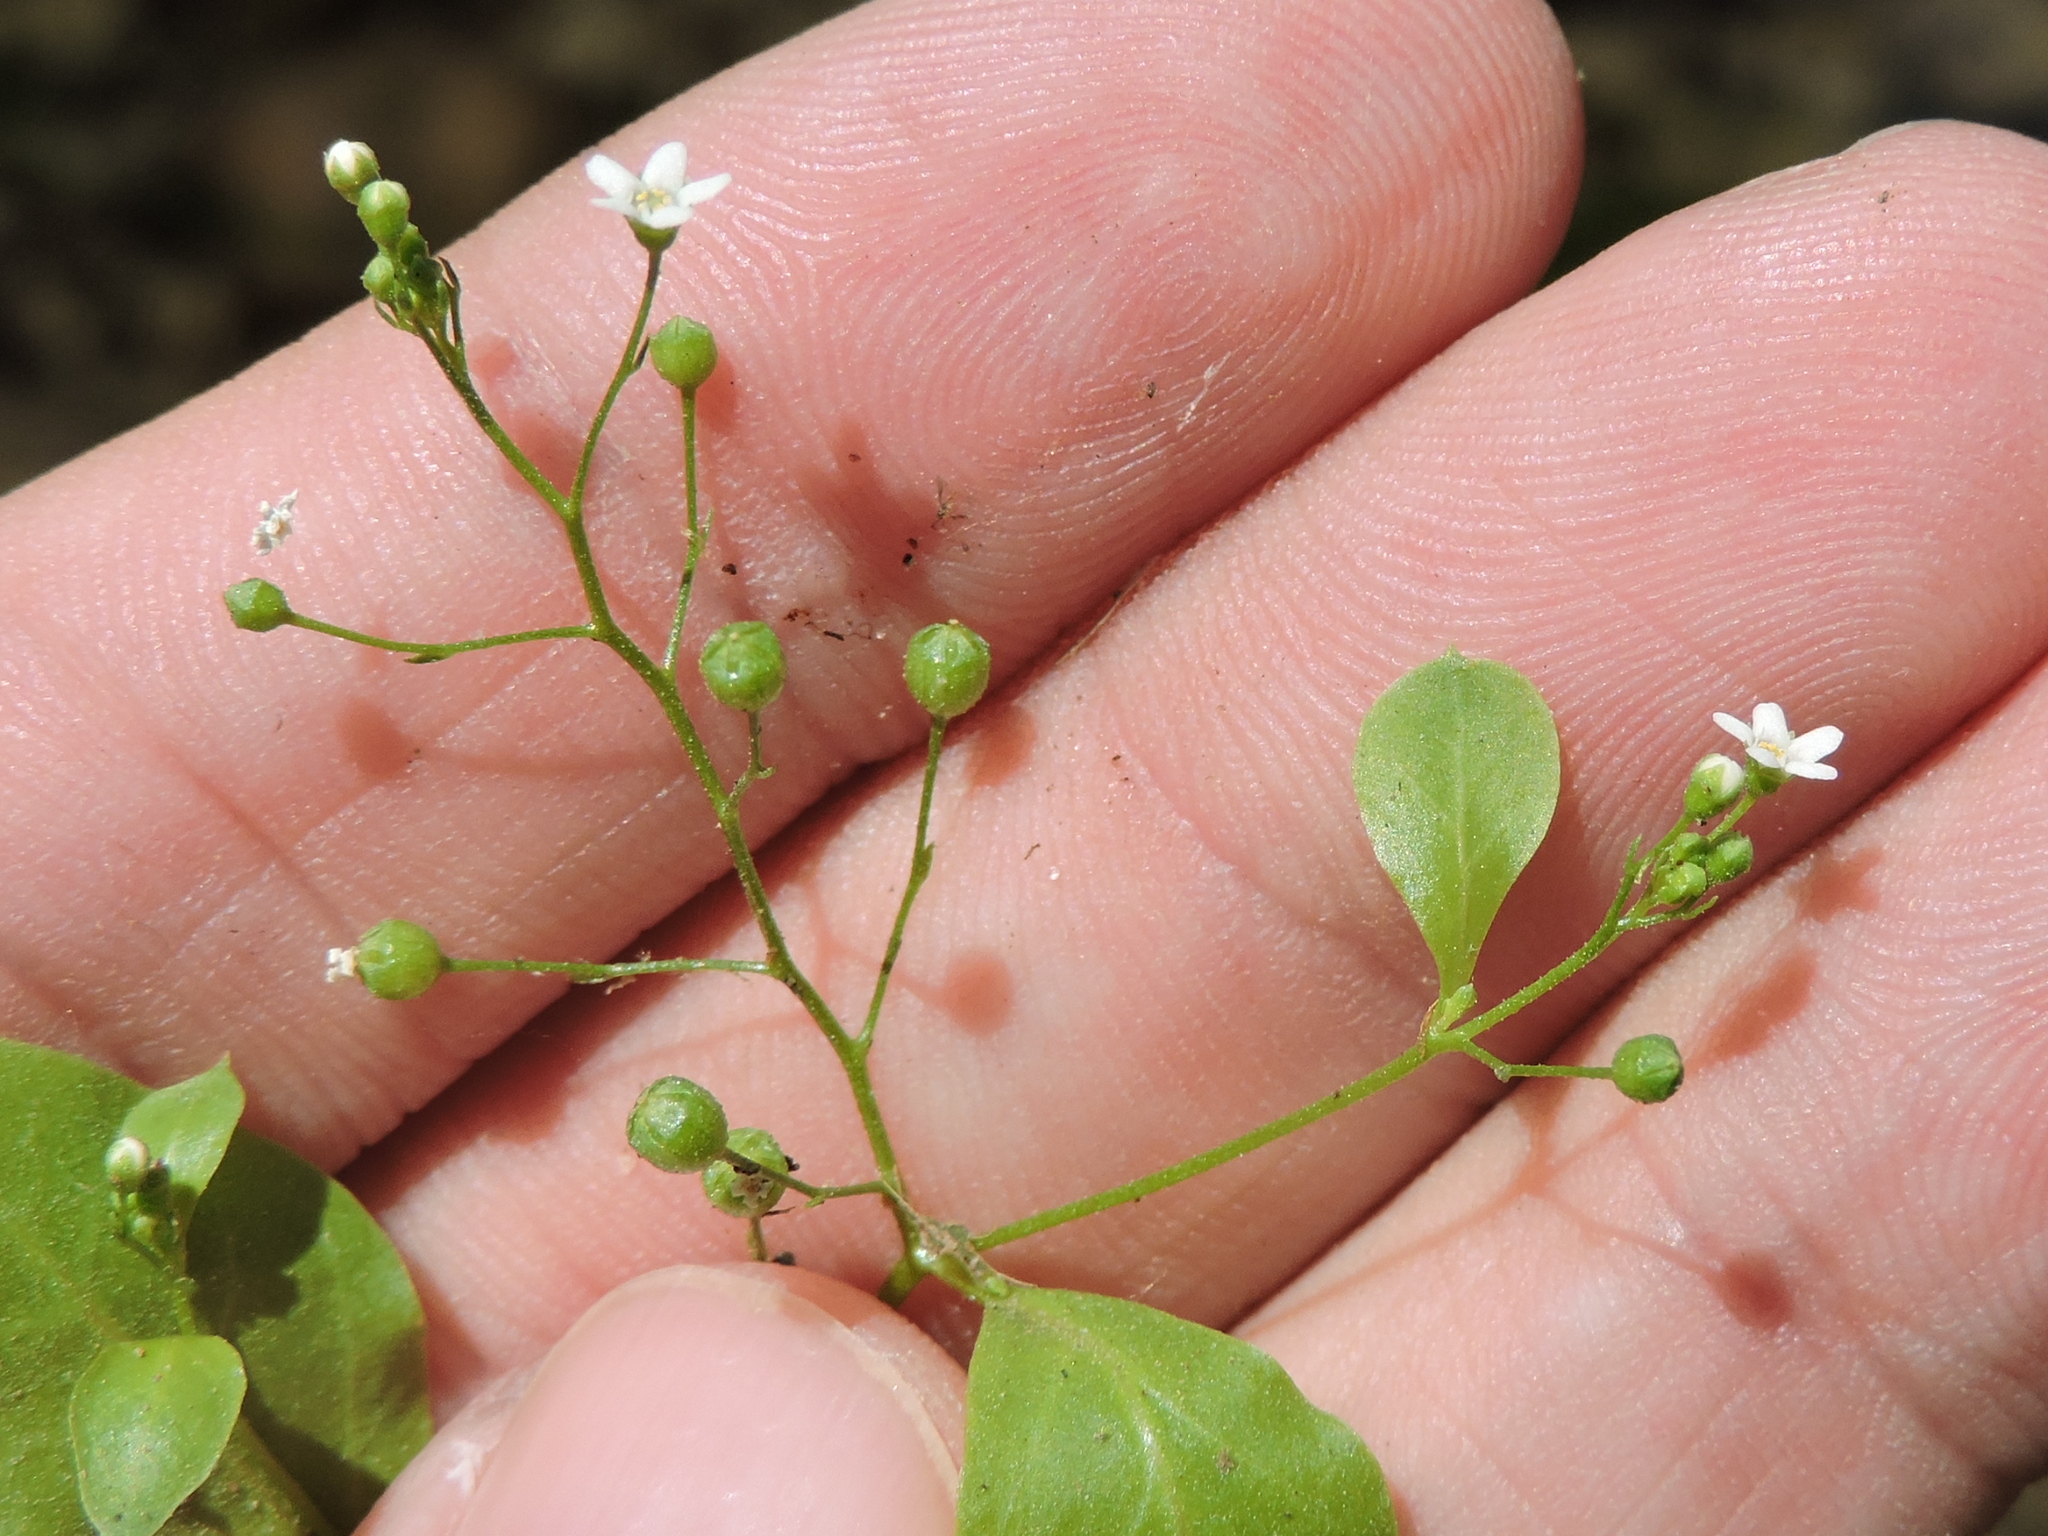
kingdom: Plantae
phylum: Tracheophyta
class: Magnoliopsida
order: Ericales
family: Primulaceae
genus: Samolus
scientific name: Samolus parviflorus
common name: False water pimpernel
